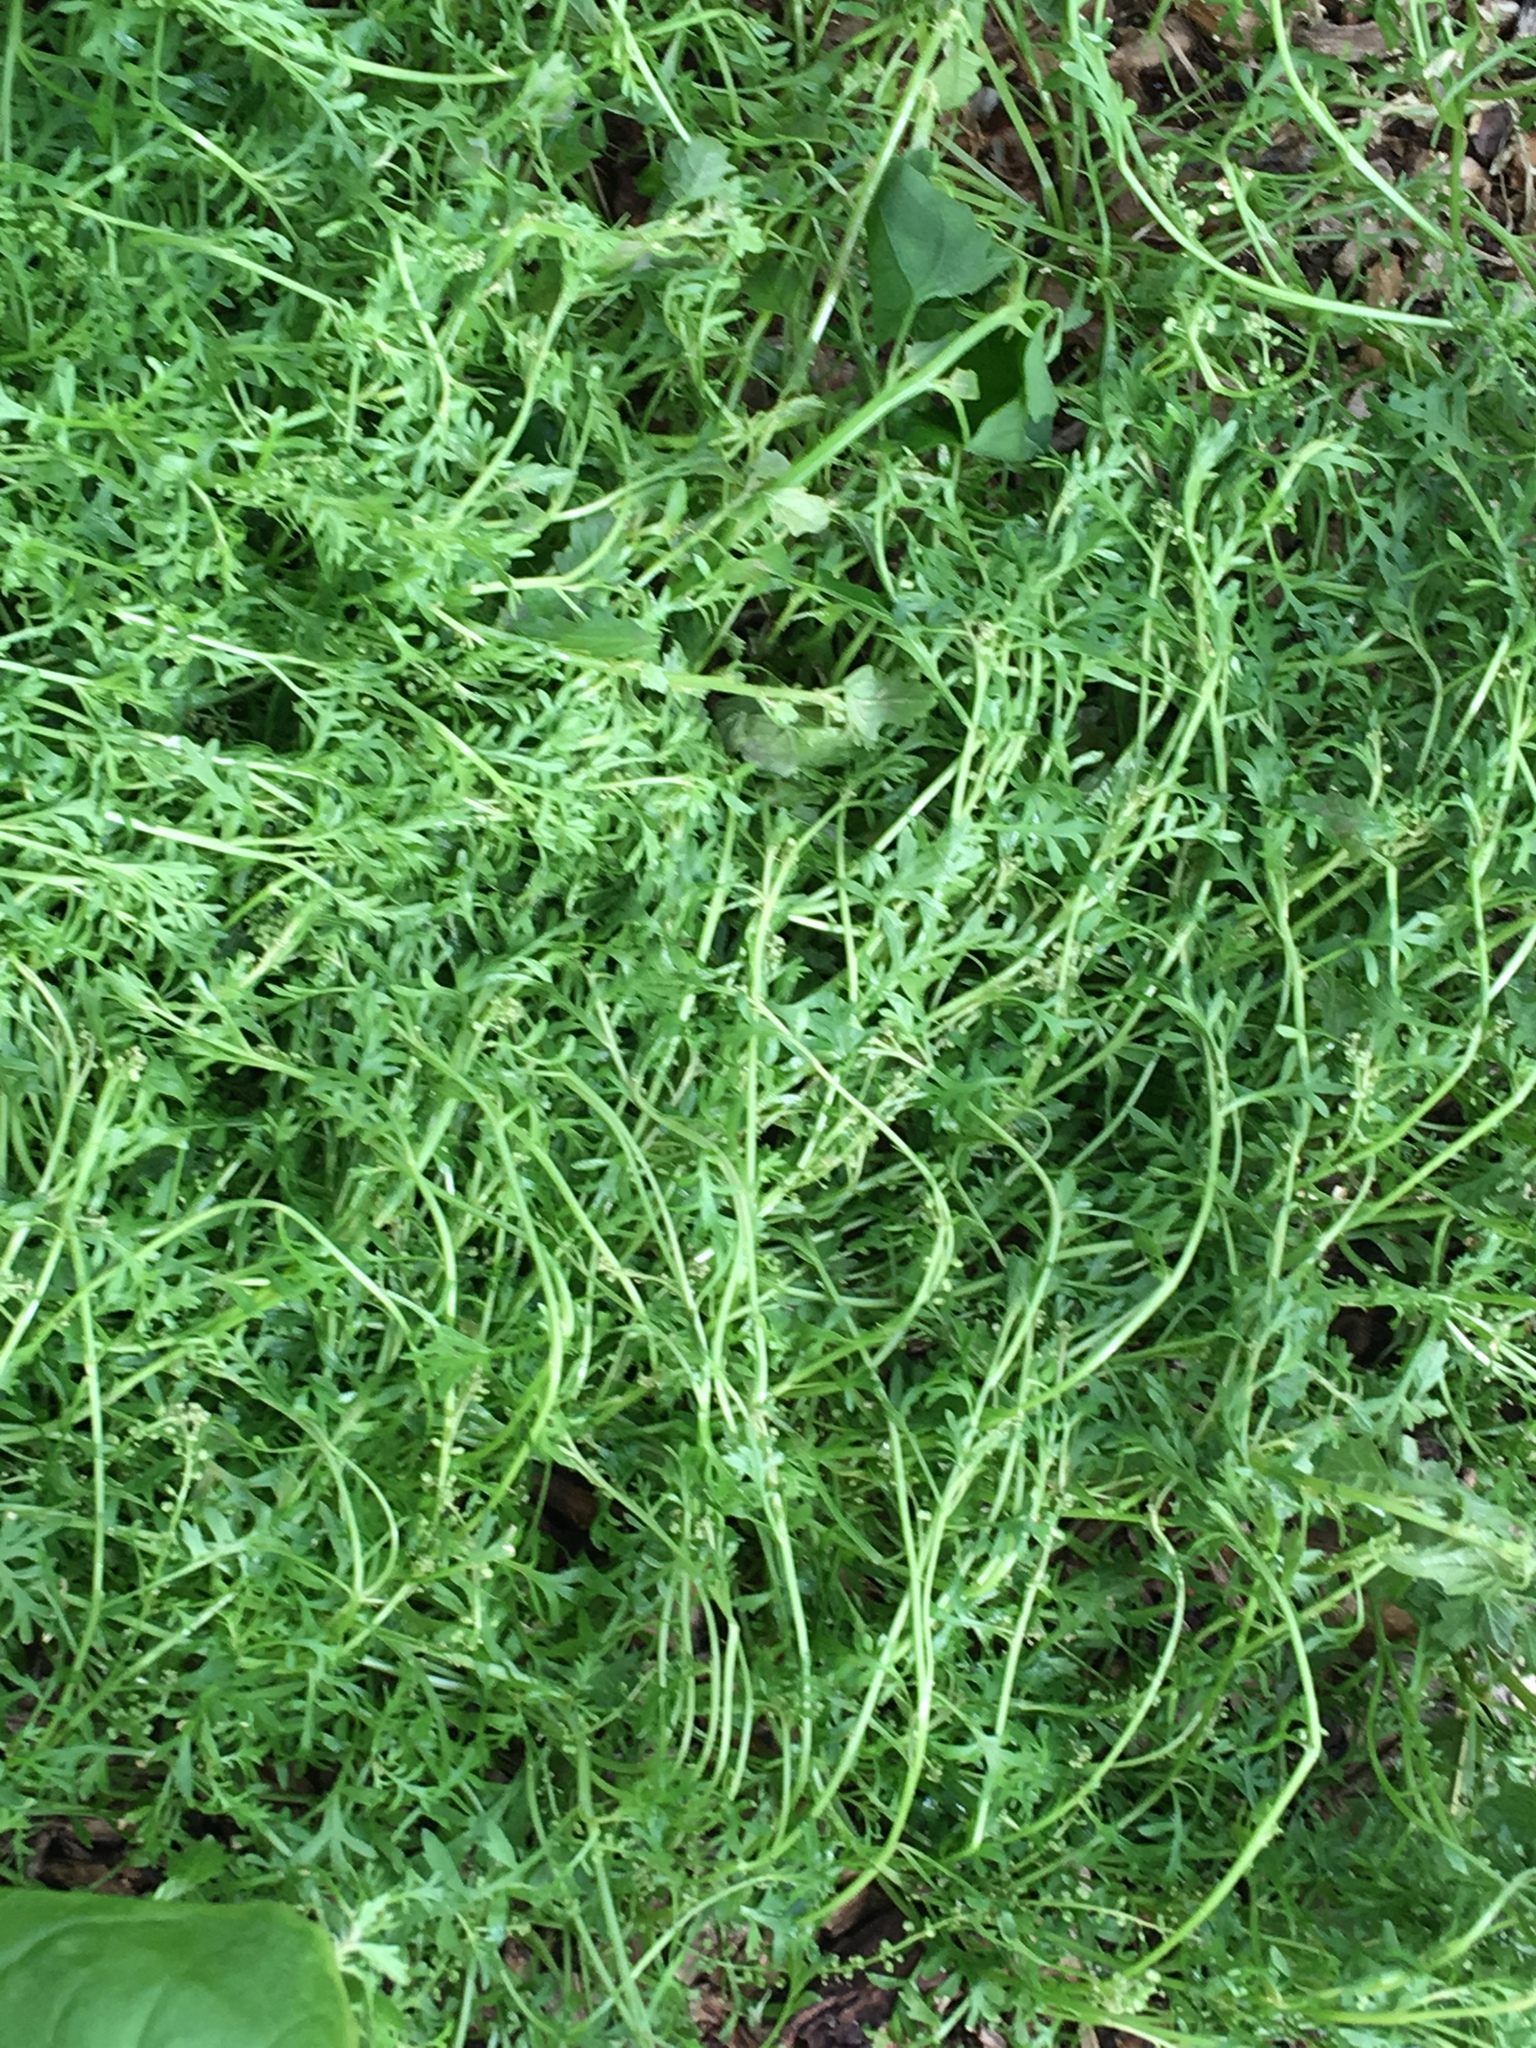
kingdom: Plantae
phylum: Tracheophyta
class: Magnoliopsida
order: Brassicales
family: Brassicaceae
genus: Lepidium
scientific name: Lepidium didymum
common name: Lesser swinecress
